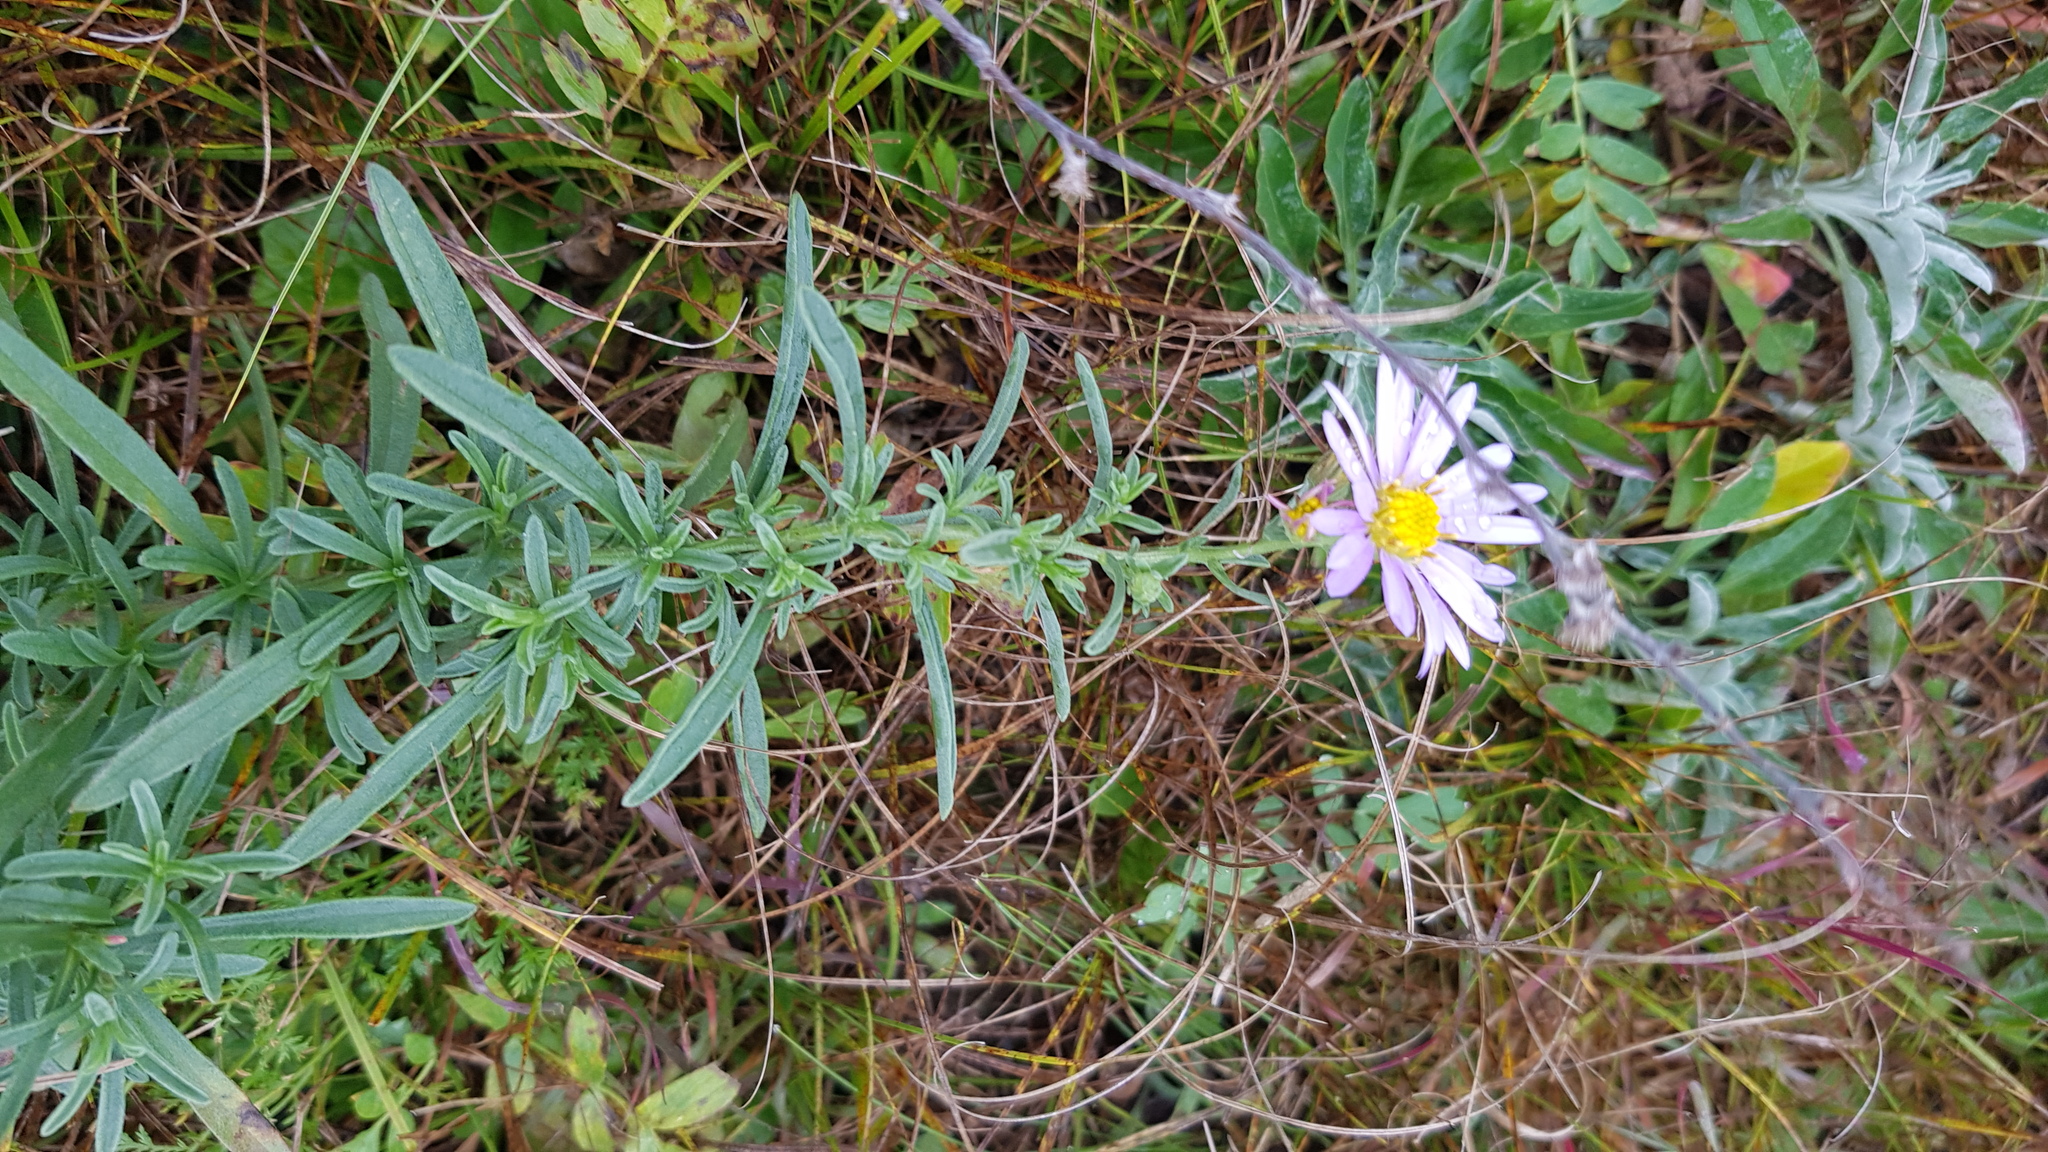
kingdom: Plantae
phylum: Tracheophyta
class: Magnoliopsida
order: Asterales
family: Asteraceae
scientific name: Asteraceae
